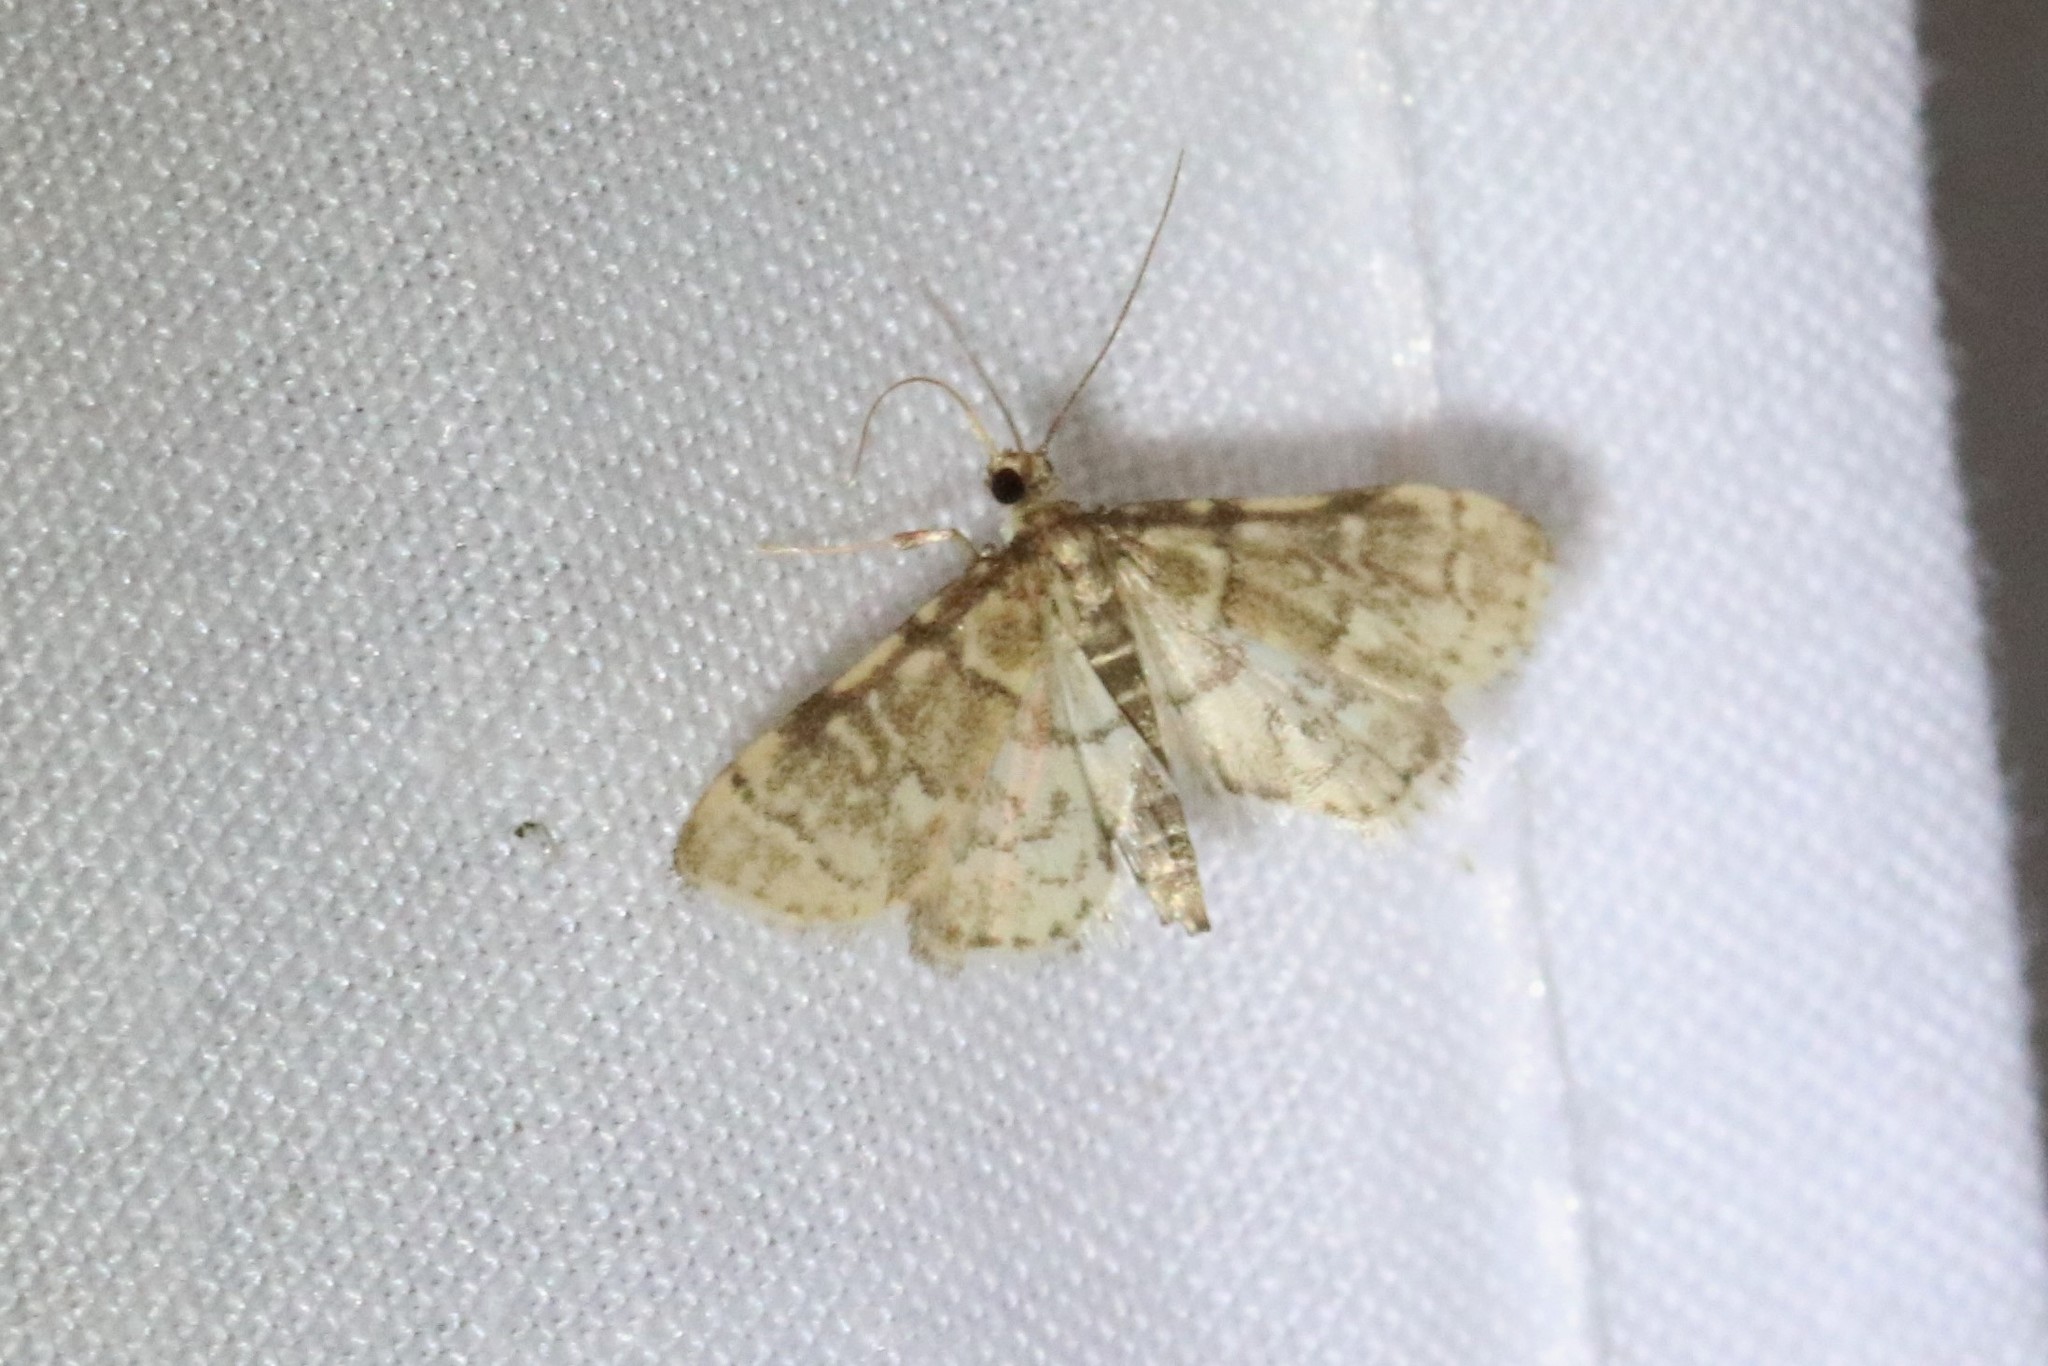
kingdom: Animalia
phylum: Arthropoda
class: Insecta
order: Lepidoptera
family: Crambidae
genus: Anageshna
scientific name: Anageshna primordialis
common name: Yellow-spotted webworm moth
